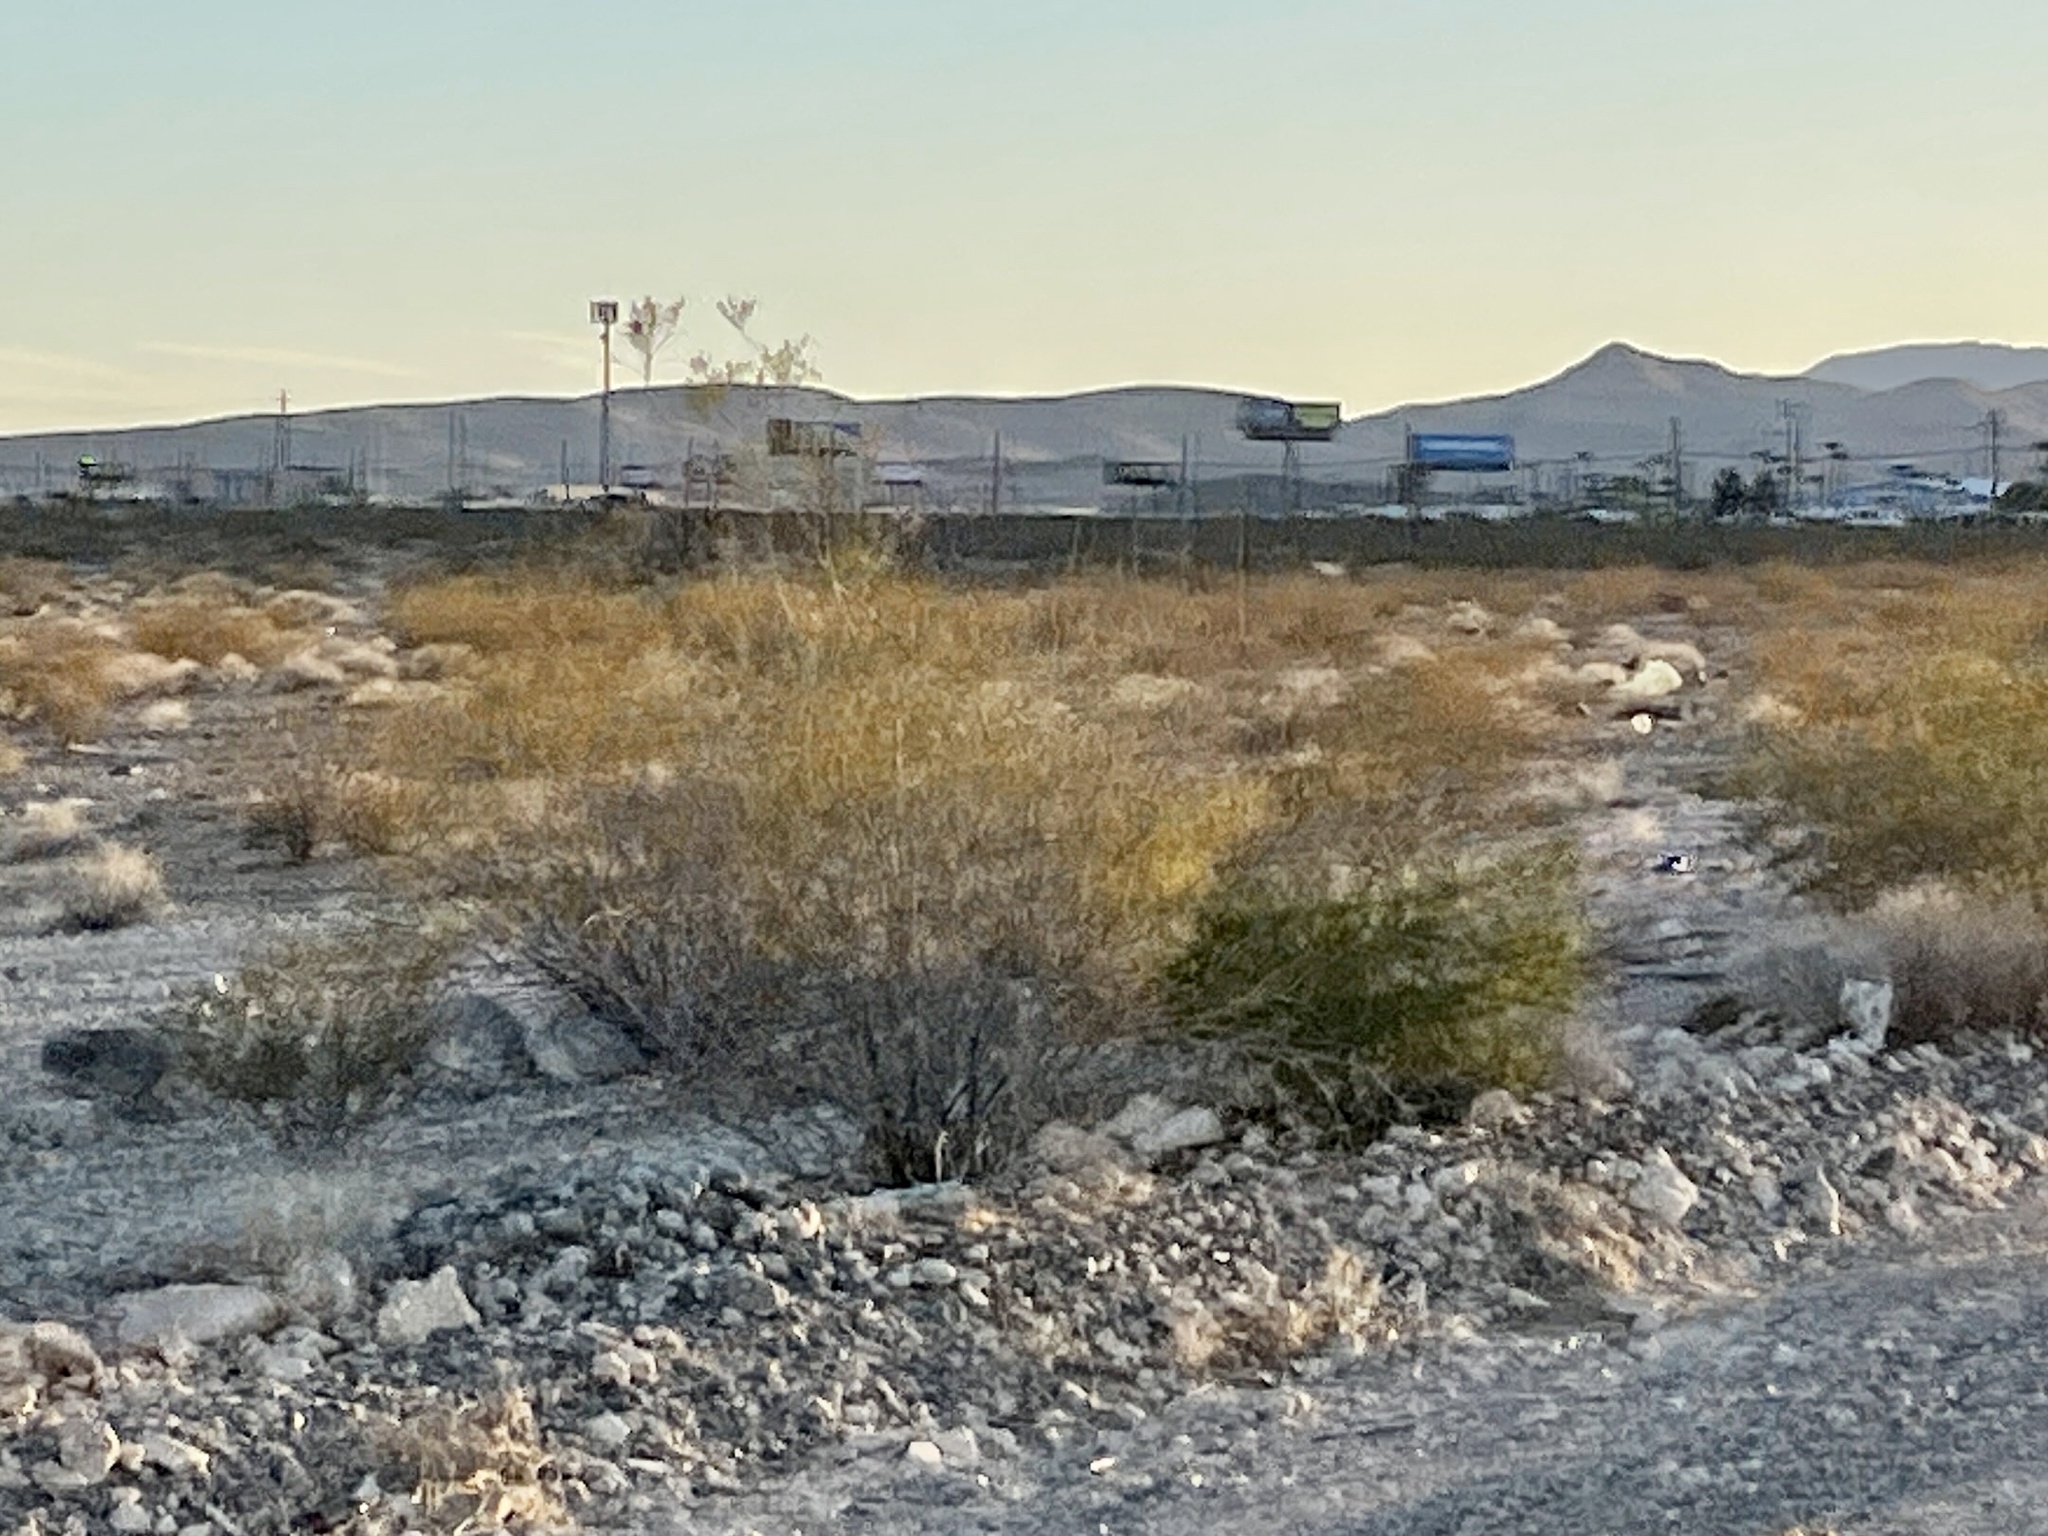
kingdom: Plantae
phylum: Tracheophyta
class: Magnoliopsida
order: Zygophyllales
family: Zygophyllaceae
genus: Larrea
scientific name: Larrea tridentata
